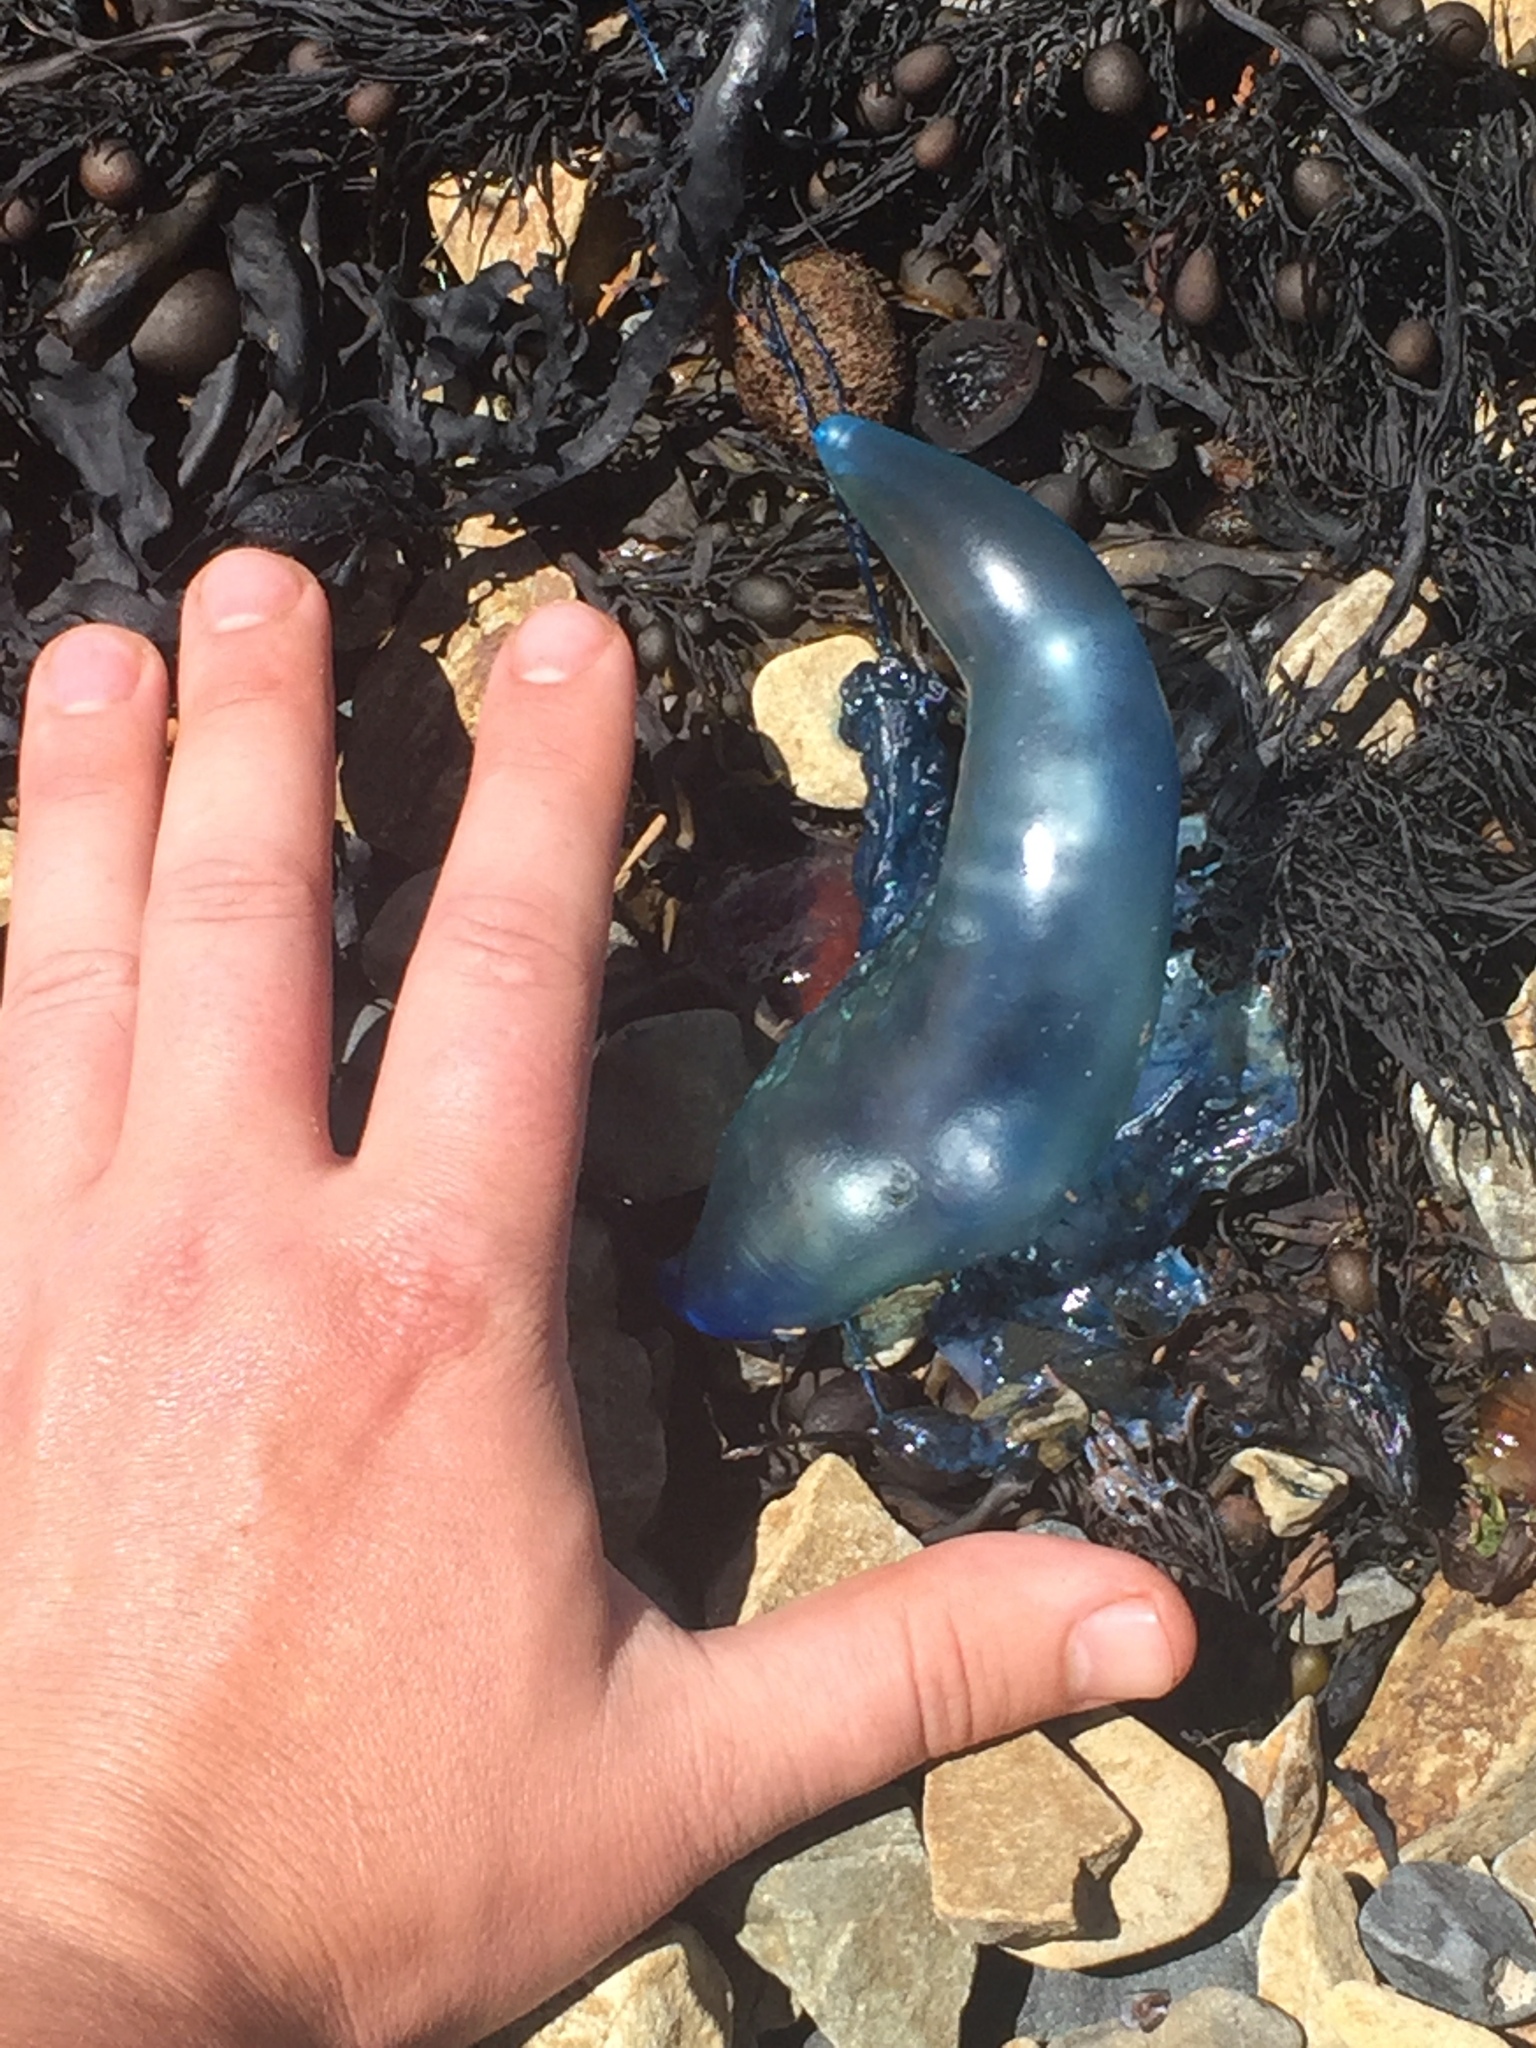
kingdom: Animalia
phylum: Cnidaria
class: Hydrozoa
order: Siphonophorae
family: Physaliidae
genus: Physalia
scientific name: Physalia physalis
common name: Portuguese man-of-war
